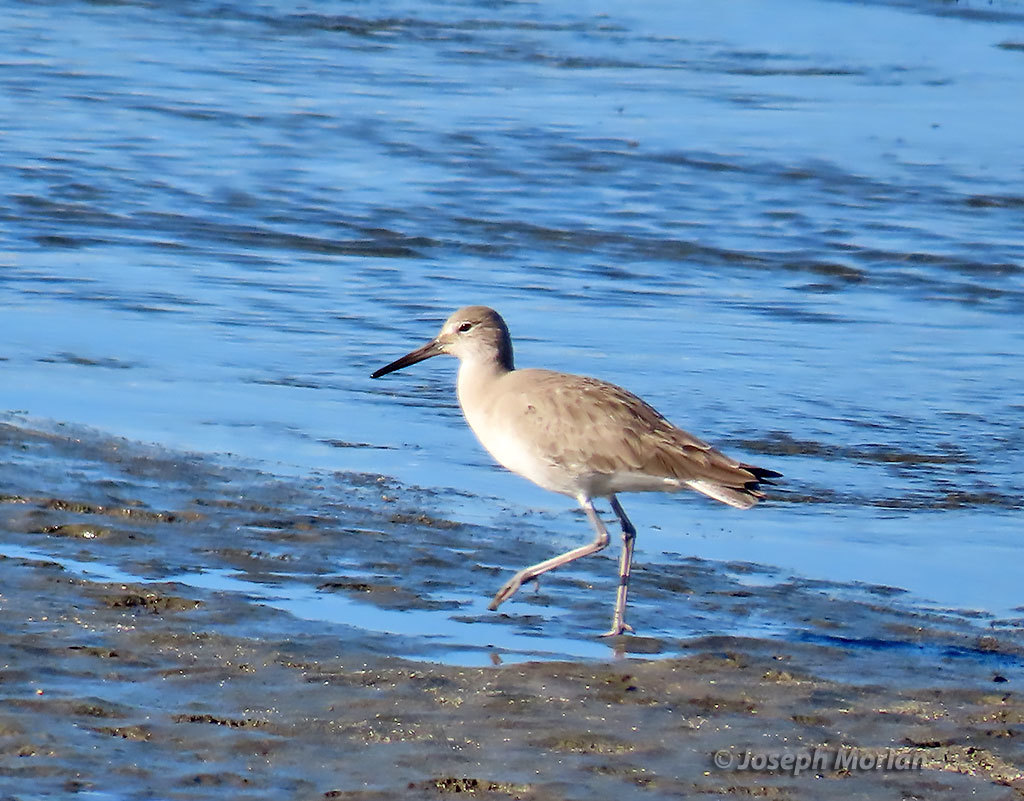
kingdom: Animalia
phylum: Chordata
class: Aves
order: Charadriiformes
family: Scolopacidae
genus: Tringa
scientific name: Tringa semipalmata
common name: Willet
